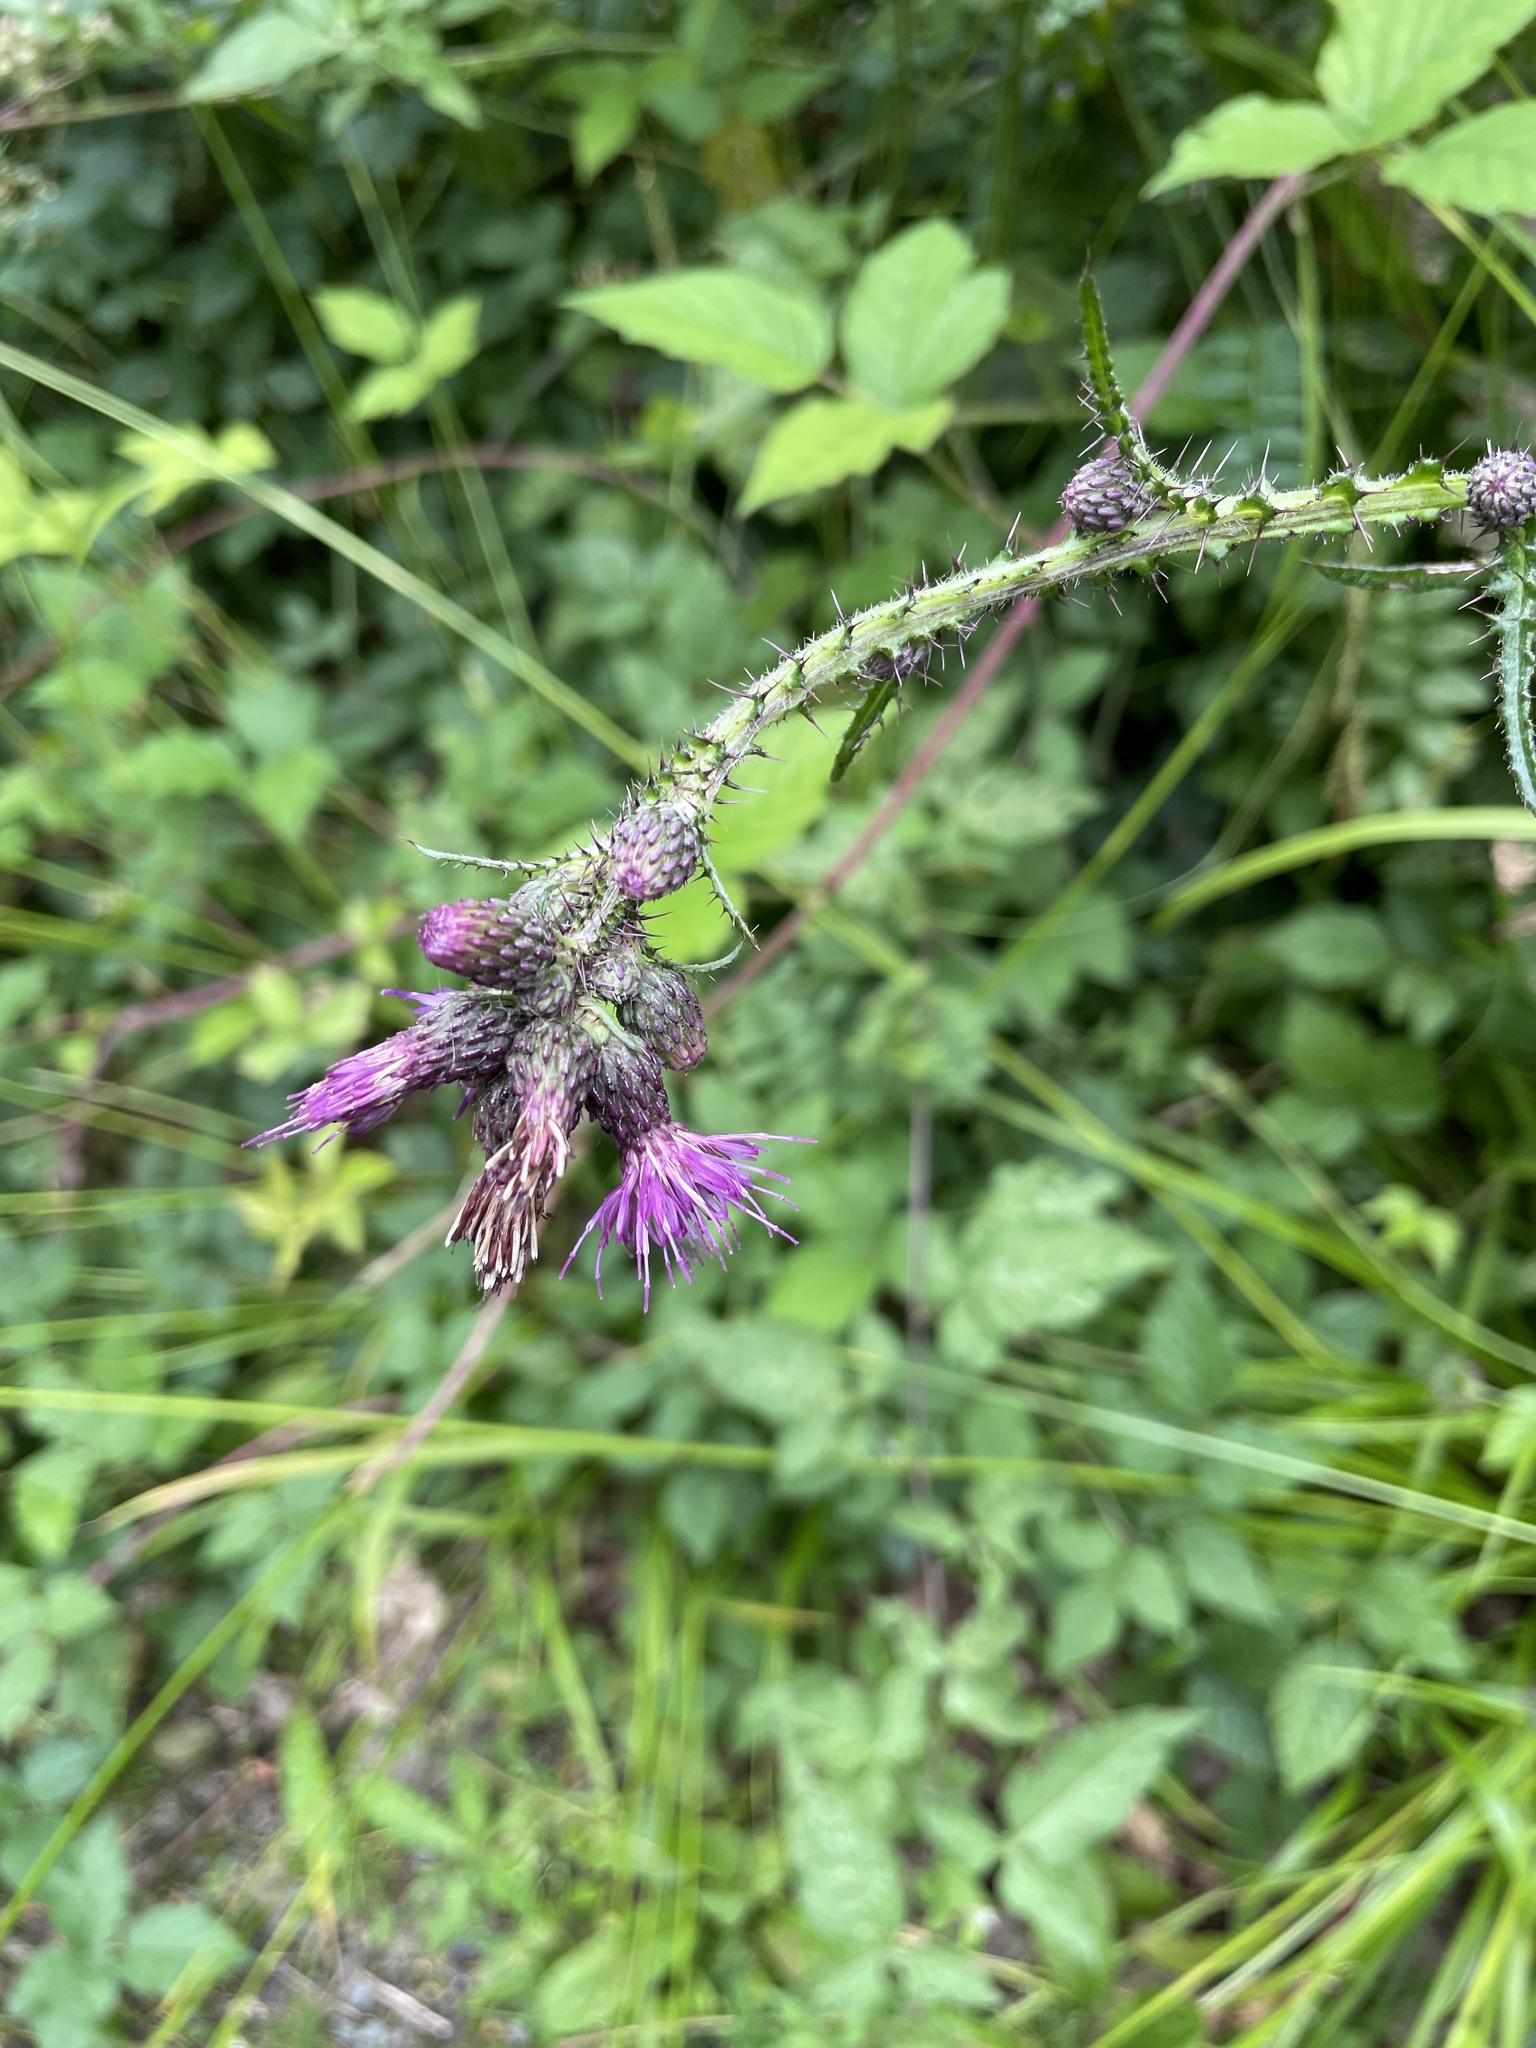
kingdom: Plantae
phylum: Tracheophyta
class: Magnoliopsida
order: Asterales
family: Asteraceae
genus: Cirsium
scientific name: Cirsium palustre
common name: Marsh thistle
